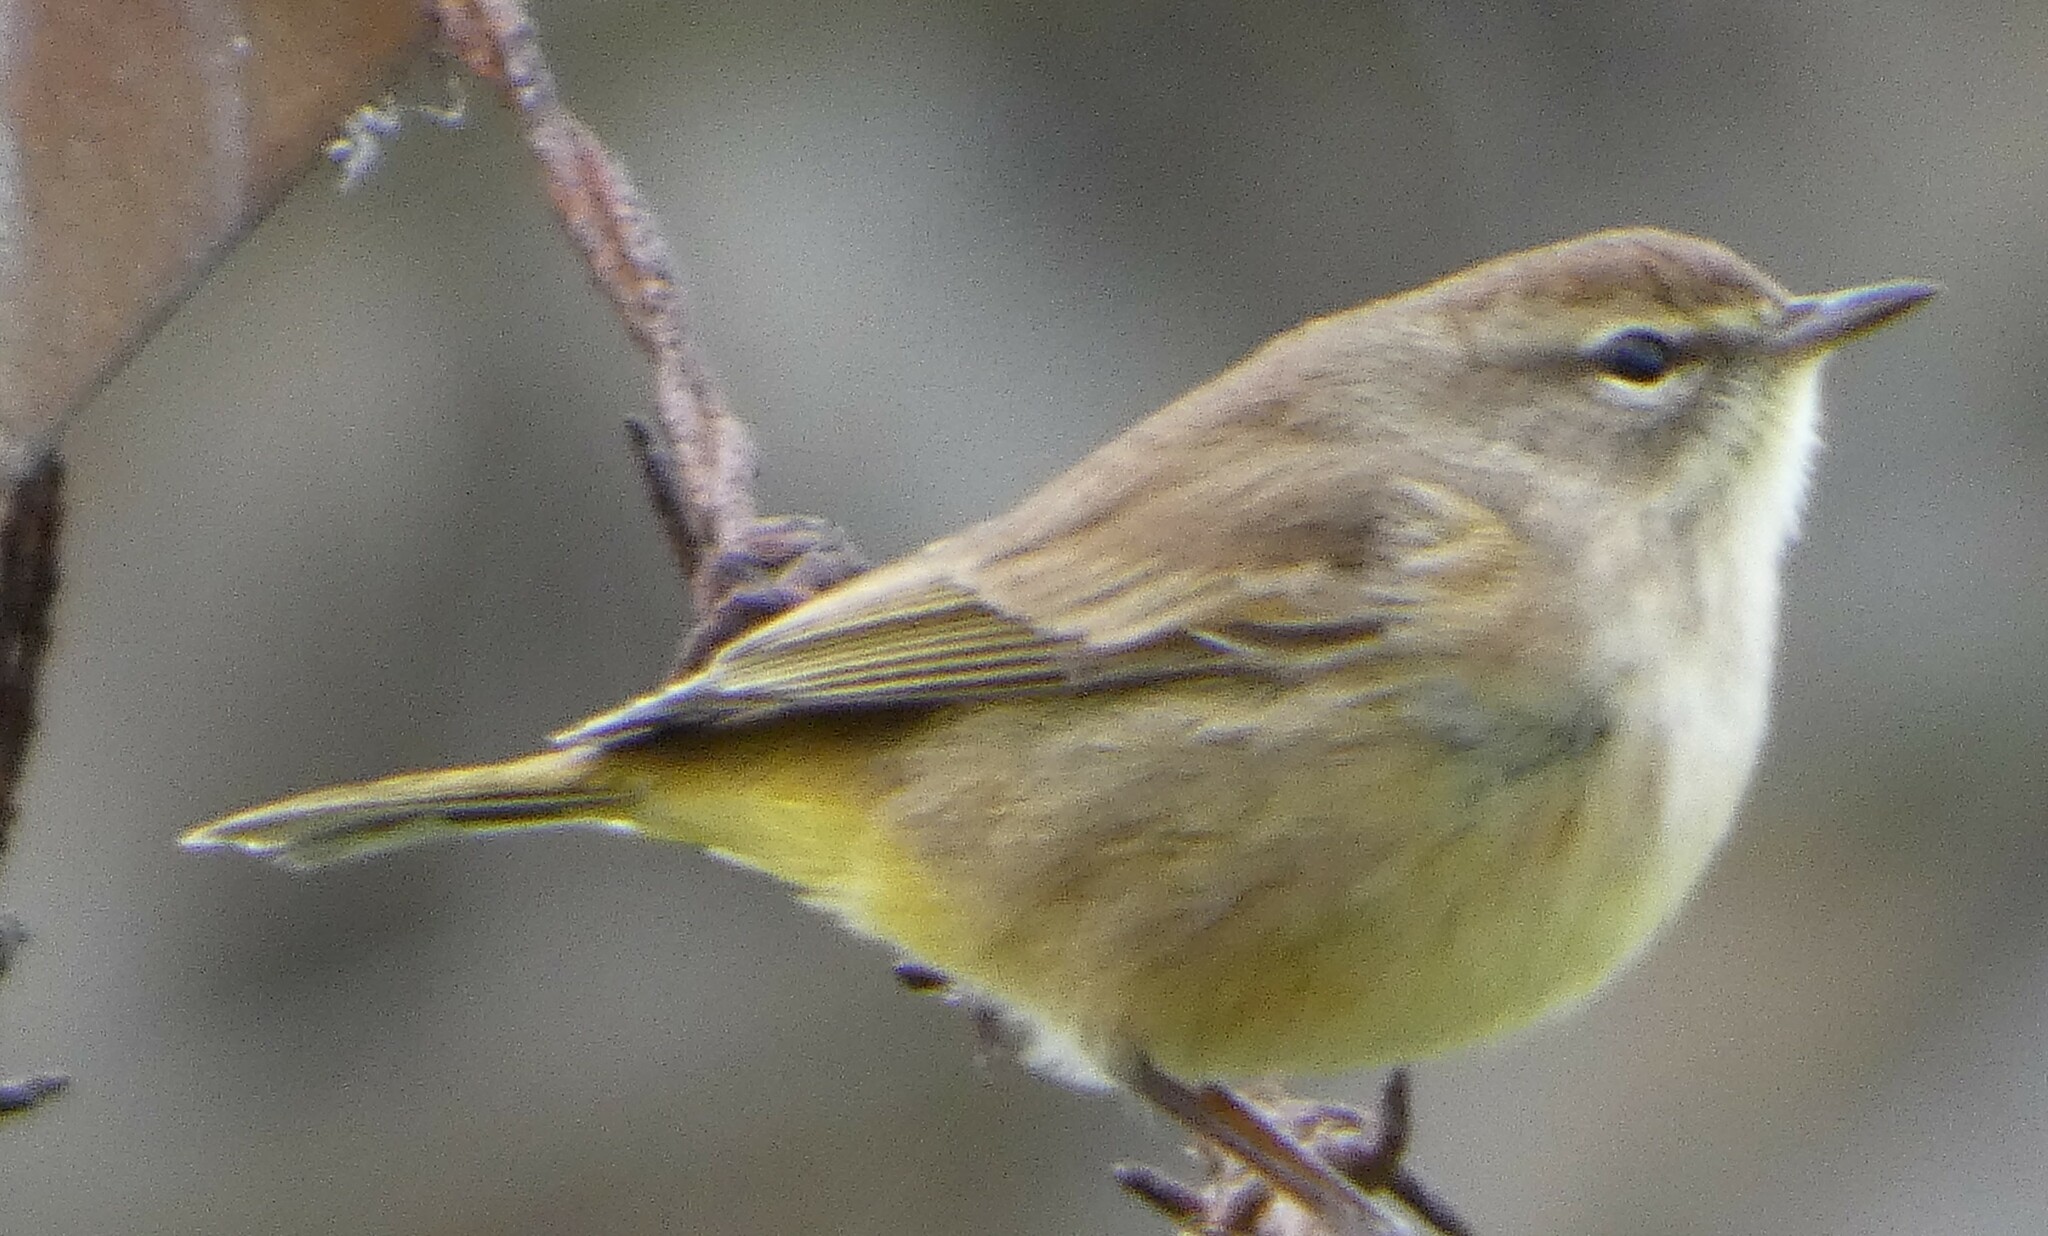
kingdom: Animalia
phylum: Chordata
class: Aves
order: Passeriformes
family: Parulidae
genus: Setophaga
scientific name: Setophaga palmarum
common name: Palm warbler
